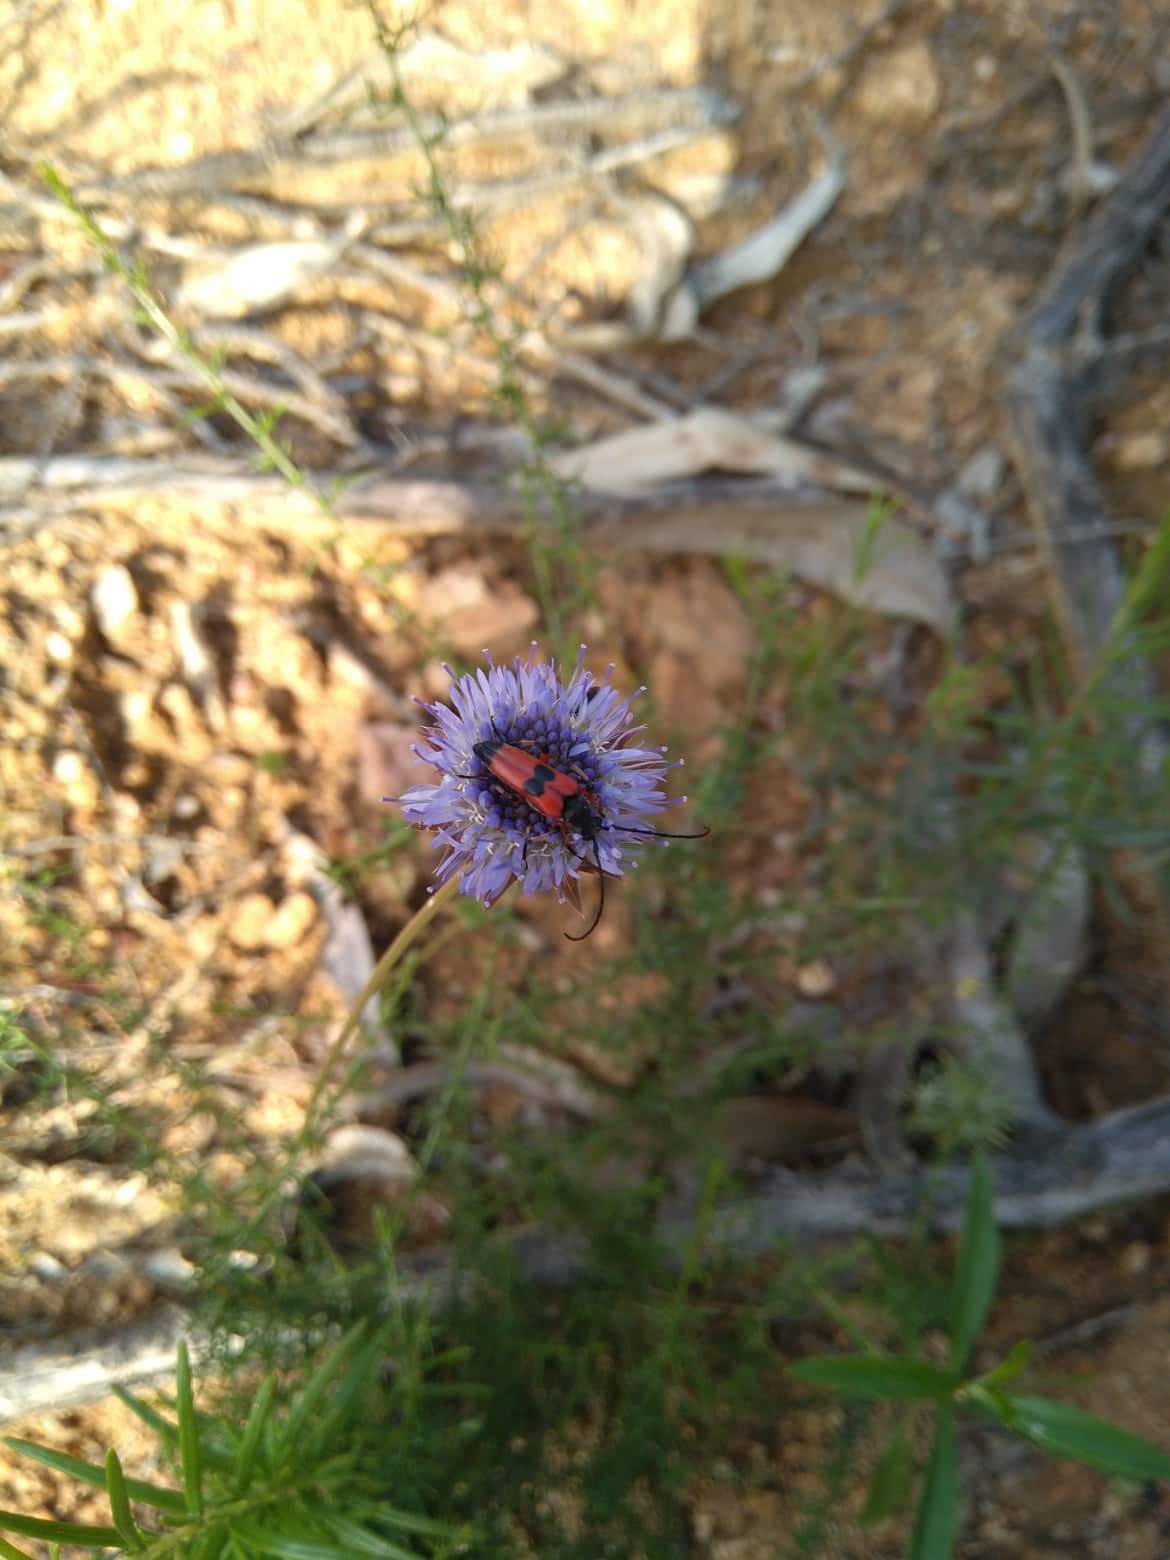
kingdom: Animalia
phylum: Arthropoda
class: Insecta
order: Coleoptera
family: Cerambycidae
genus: Nustera
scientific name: Nustera distigma
